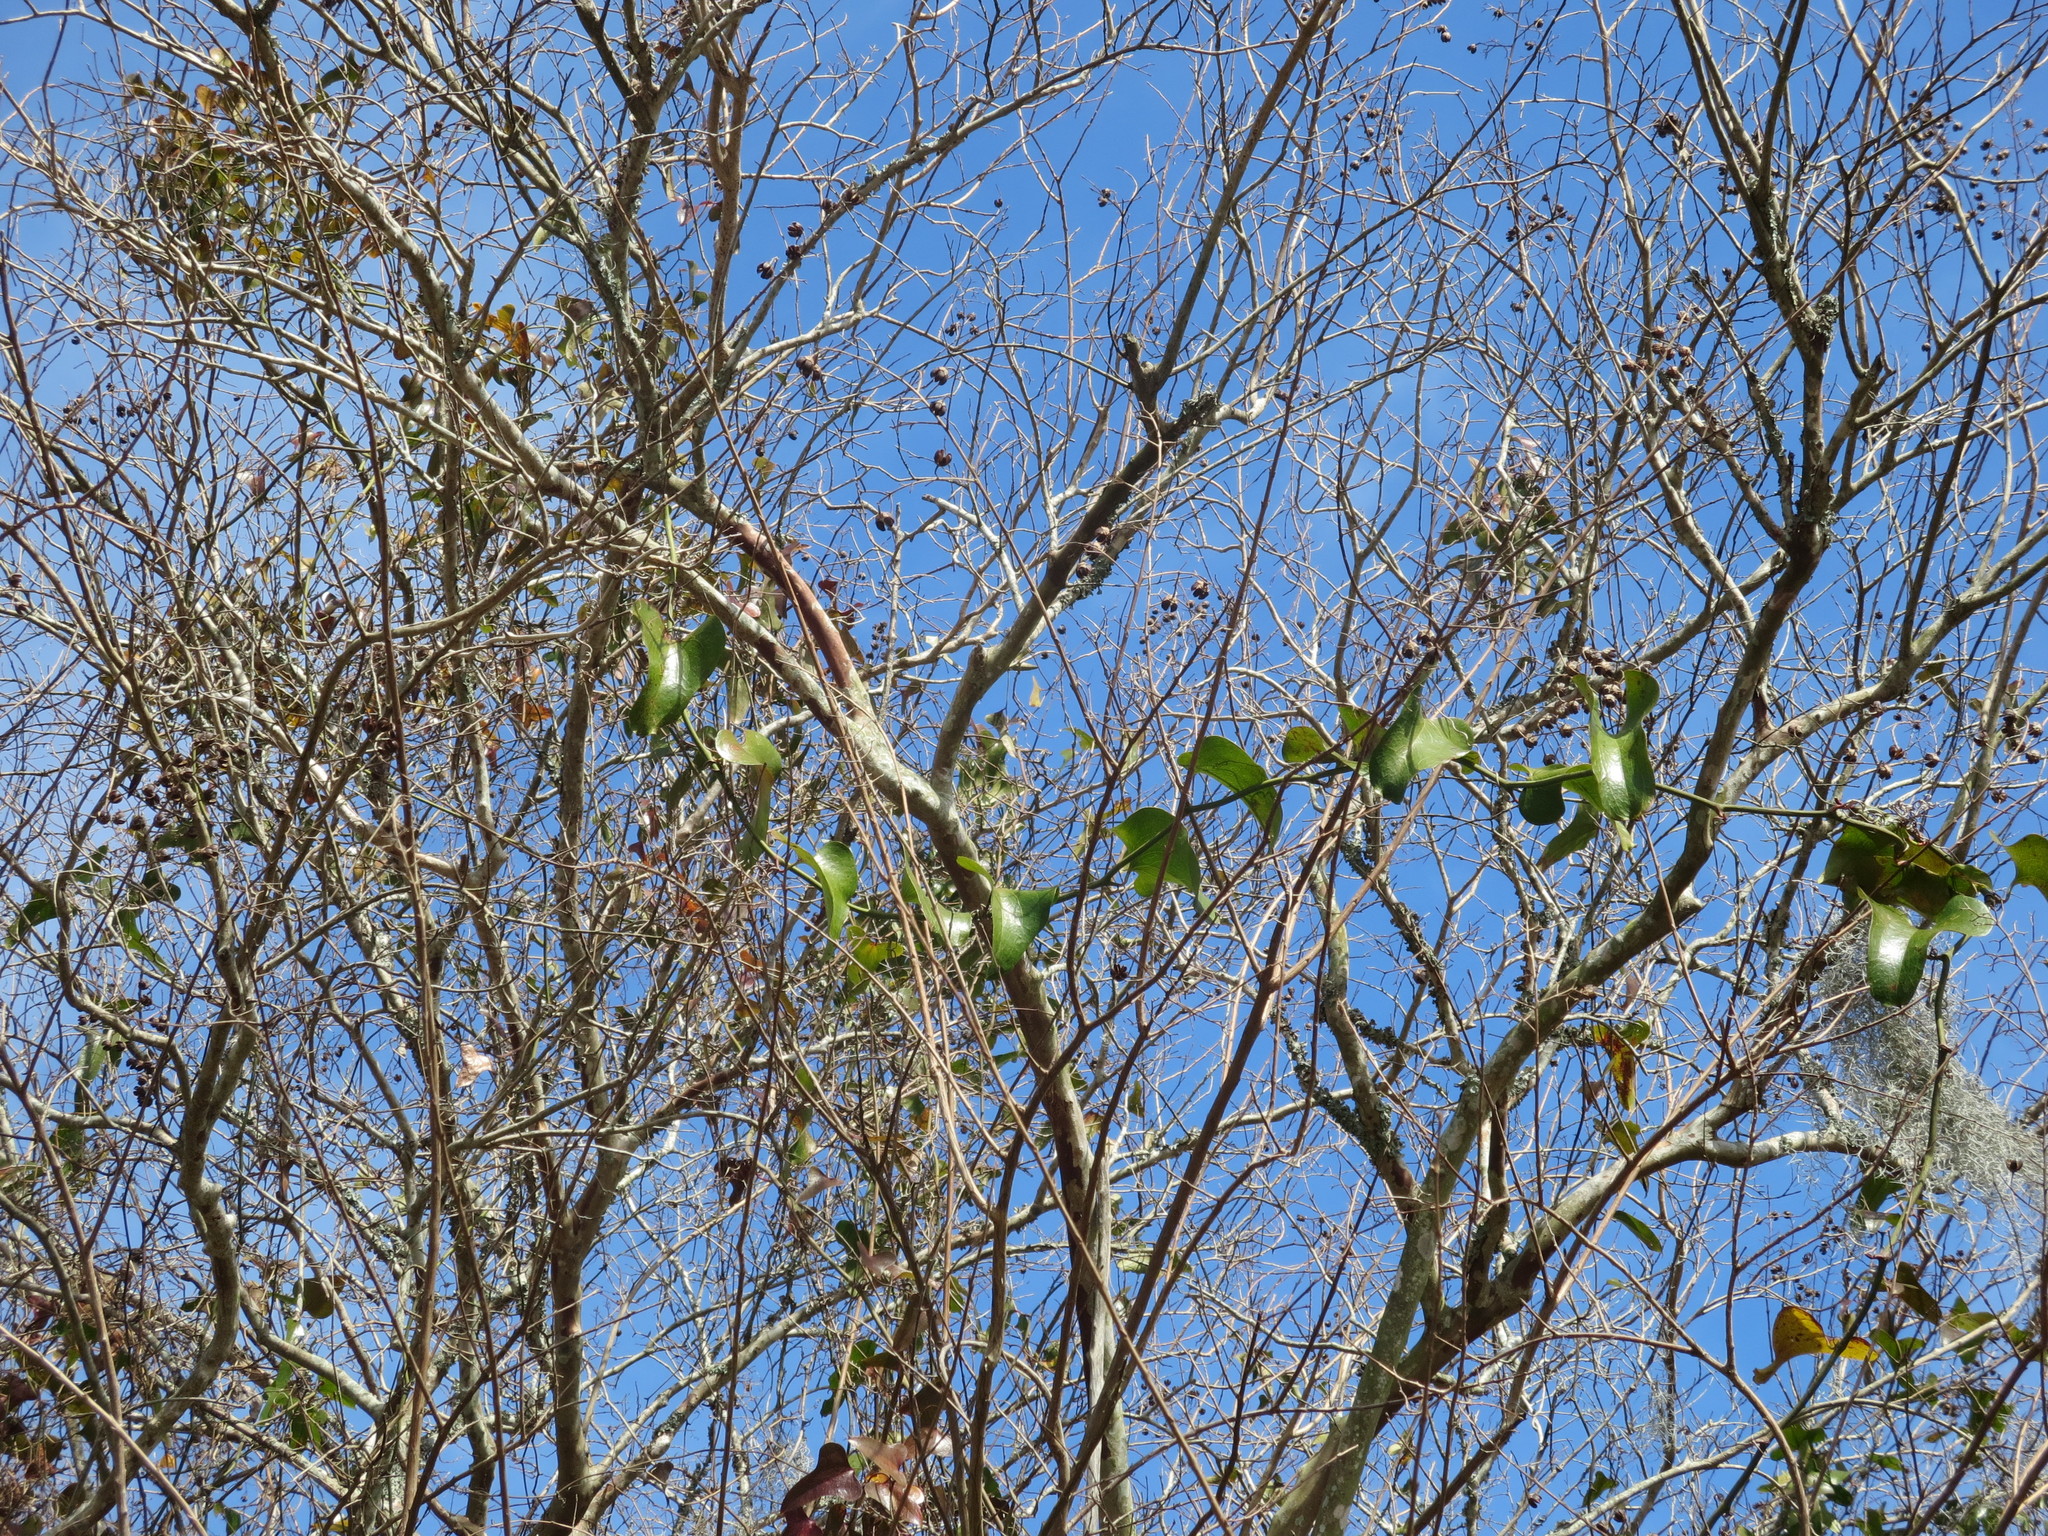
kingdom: Plantae
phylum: Tracheophyta
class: Liliopsida
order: Liliales
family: Smilacaceae
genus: Smilax
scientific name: Smilax bona-nox
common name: Catbrier
